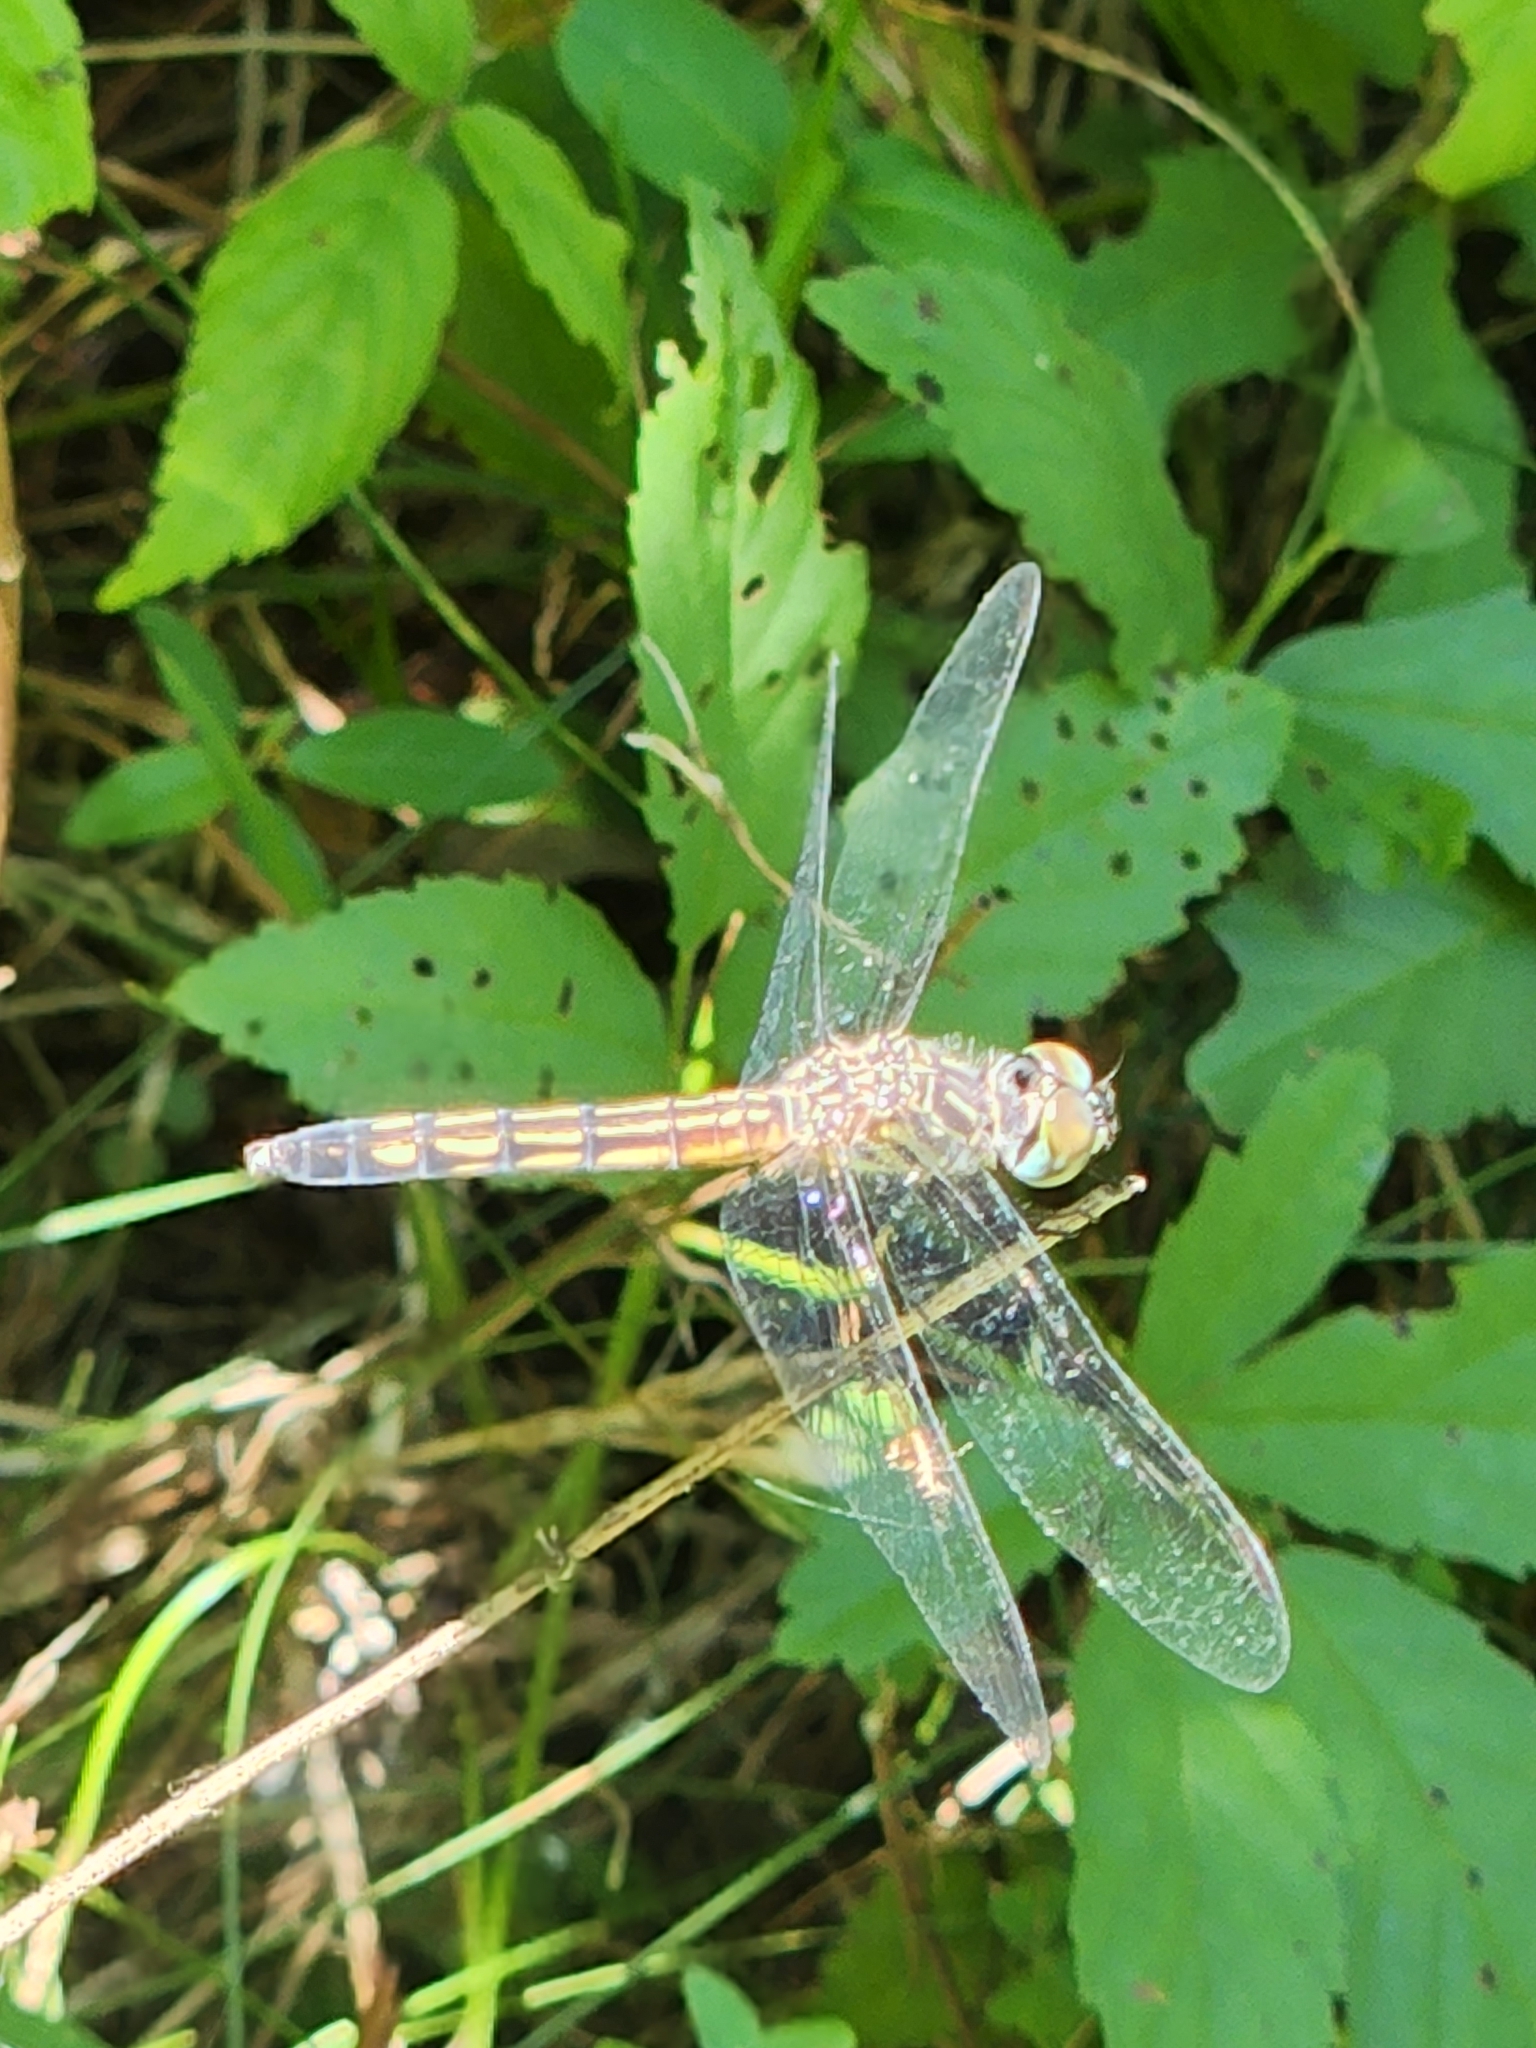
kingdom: Animalia
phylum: Arthropoda
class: Insecta
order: Odonata
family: Libellulidae
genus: Pachydiplax
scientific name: Pachydiplax longipennis
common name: Blue dasher
